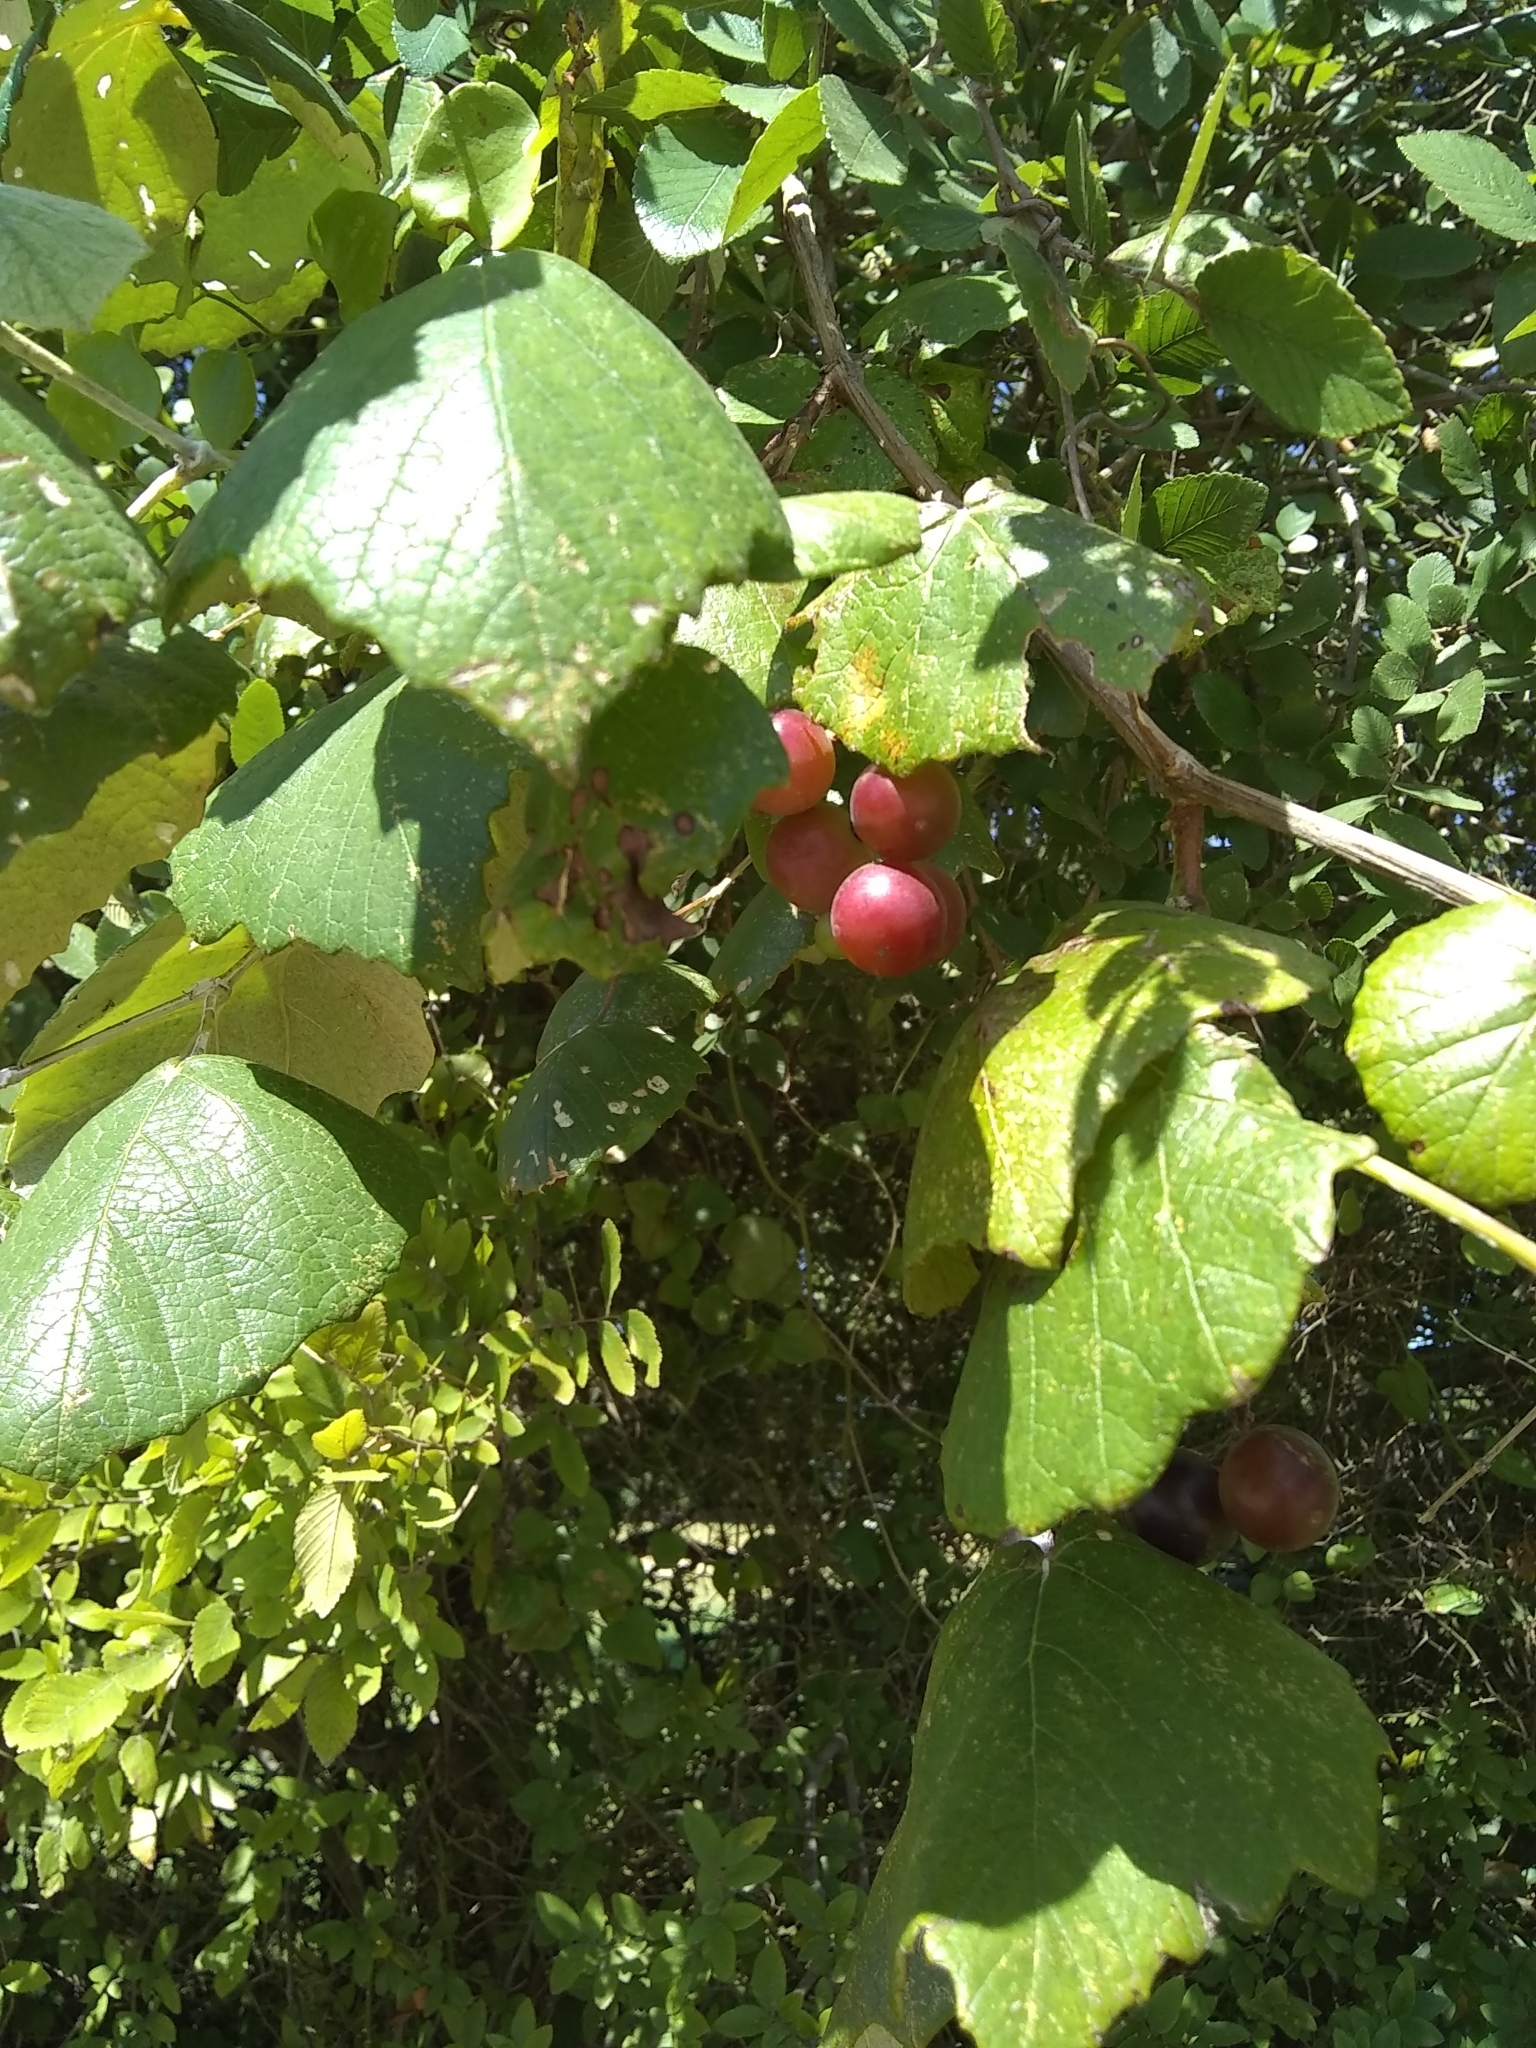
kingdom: Plantae
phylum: Tracheophyta
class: Magnoliopsida
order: Vitales
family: Vitaceae
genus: Vitis
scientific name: Vitis mustangensis
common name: Mustang grape
